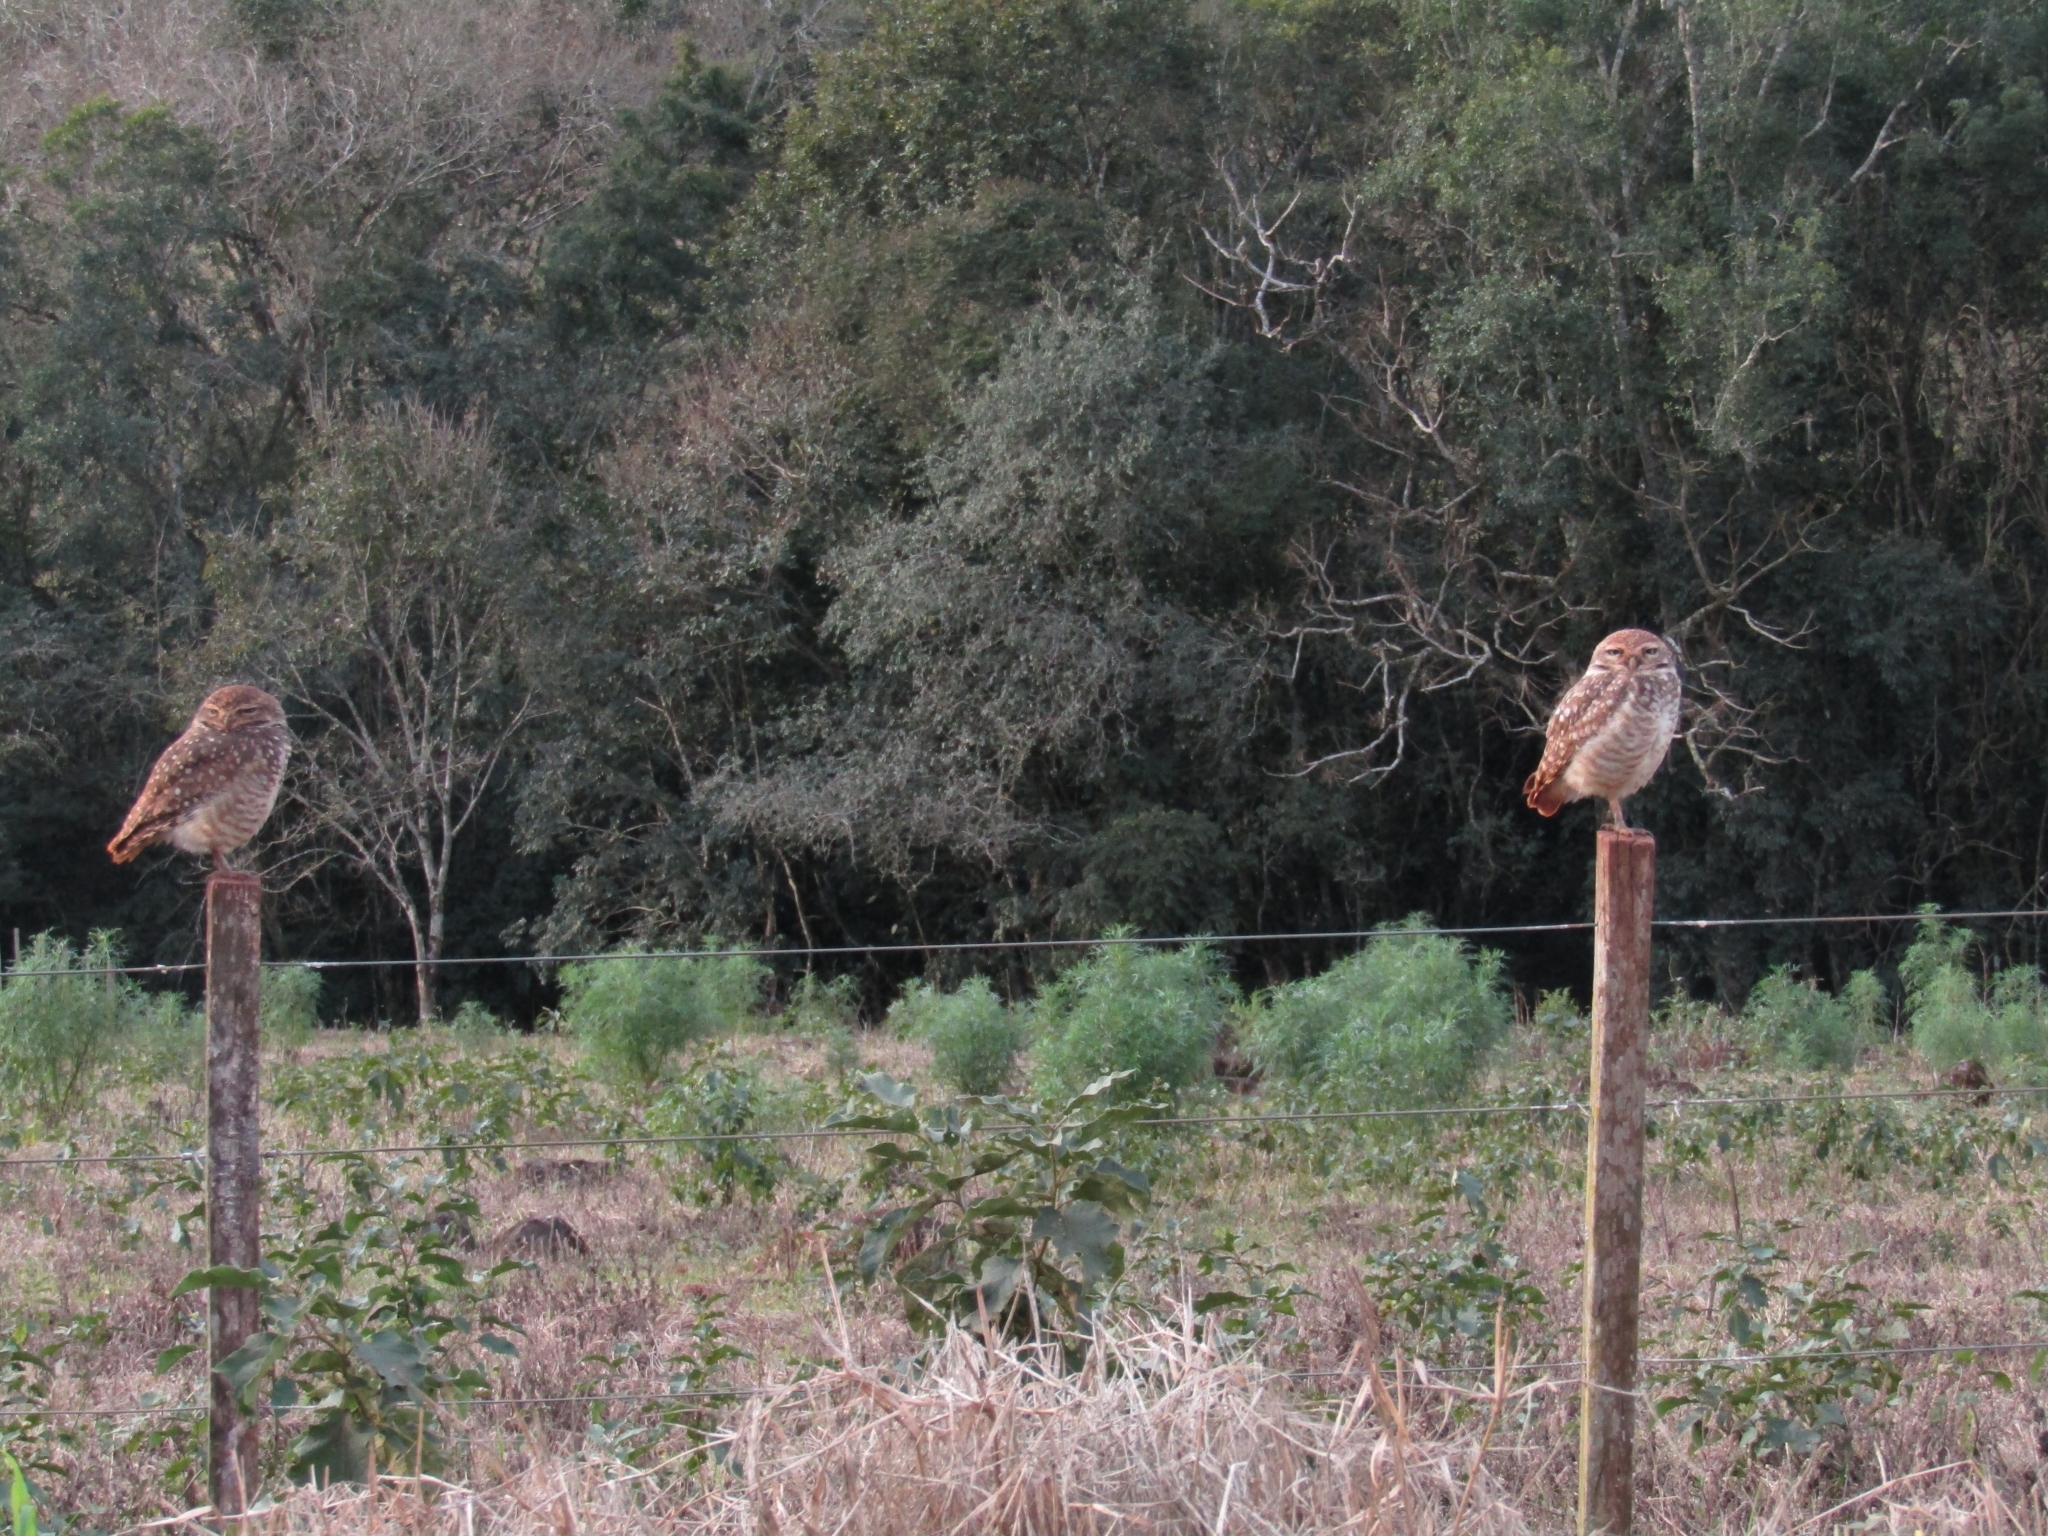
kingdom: Animalia
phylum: Chordata
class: Aves
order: Strigiformes
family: Strigidae
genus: Athene
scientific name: Athene cunicularia
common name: Burrowing owl
